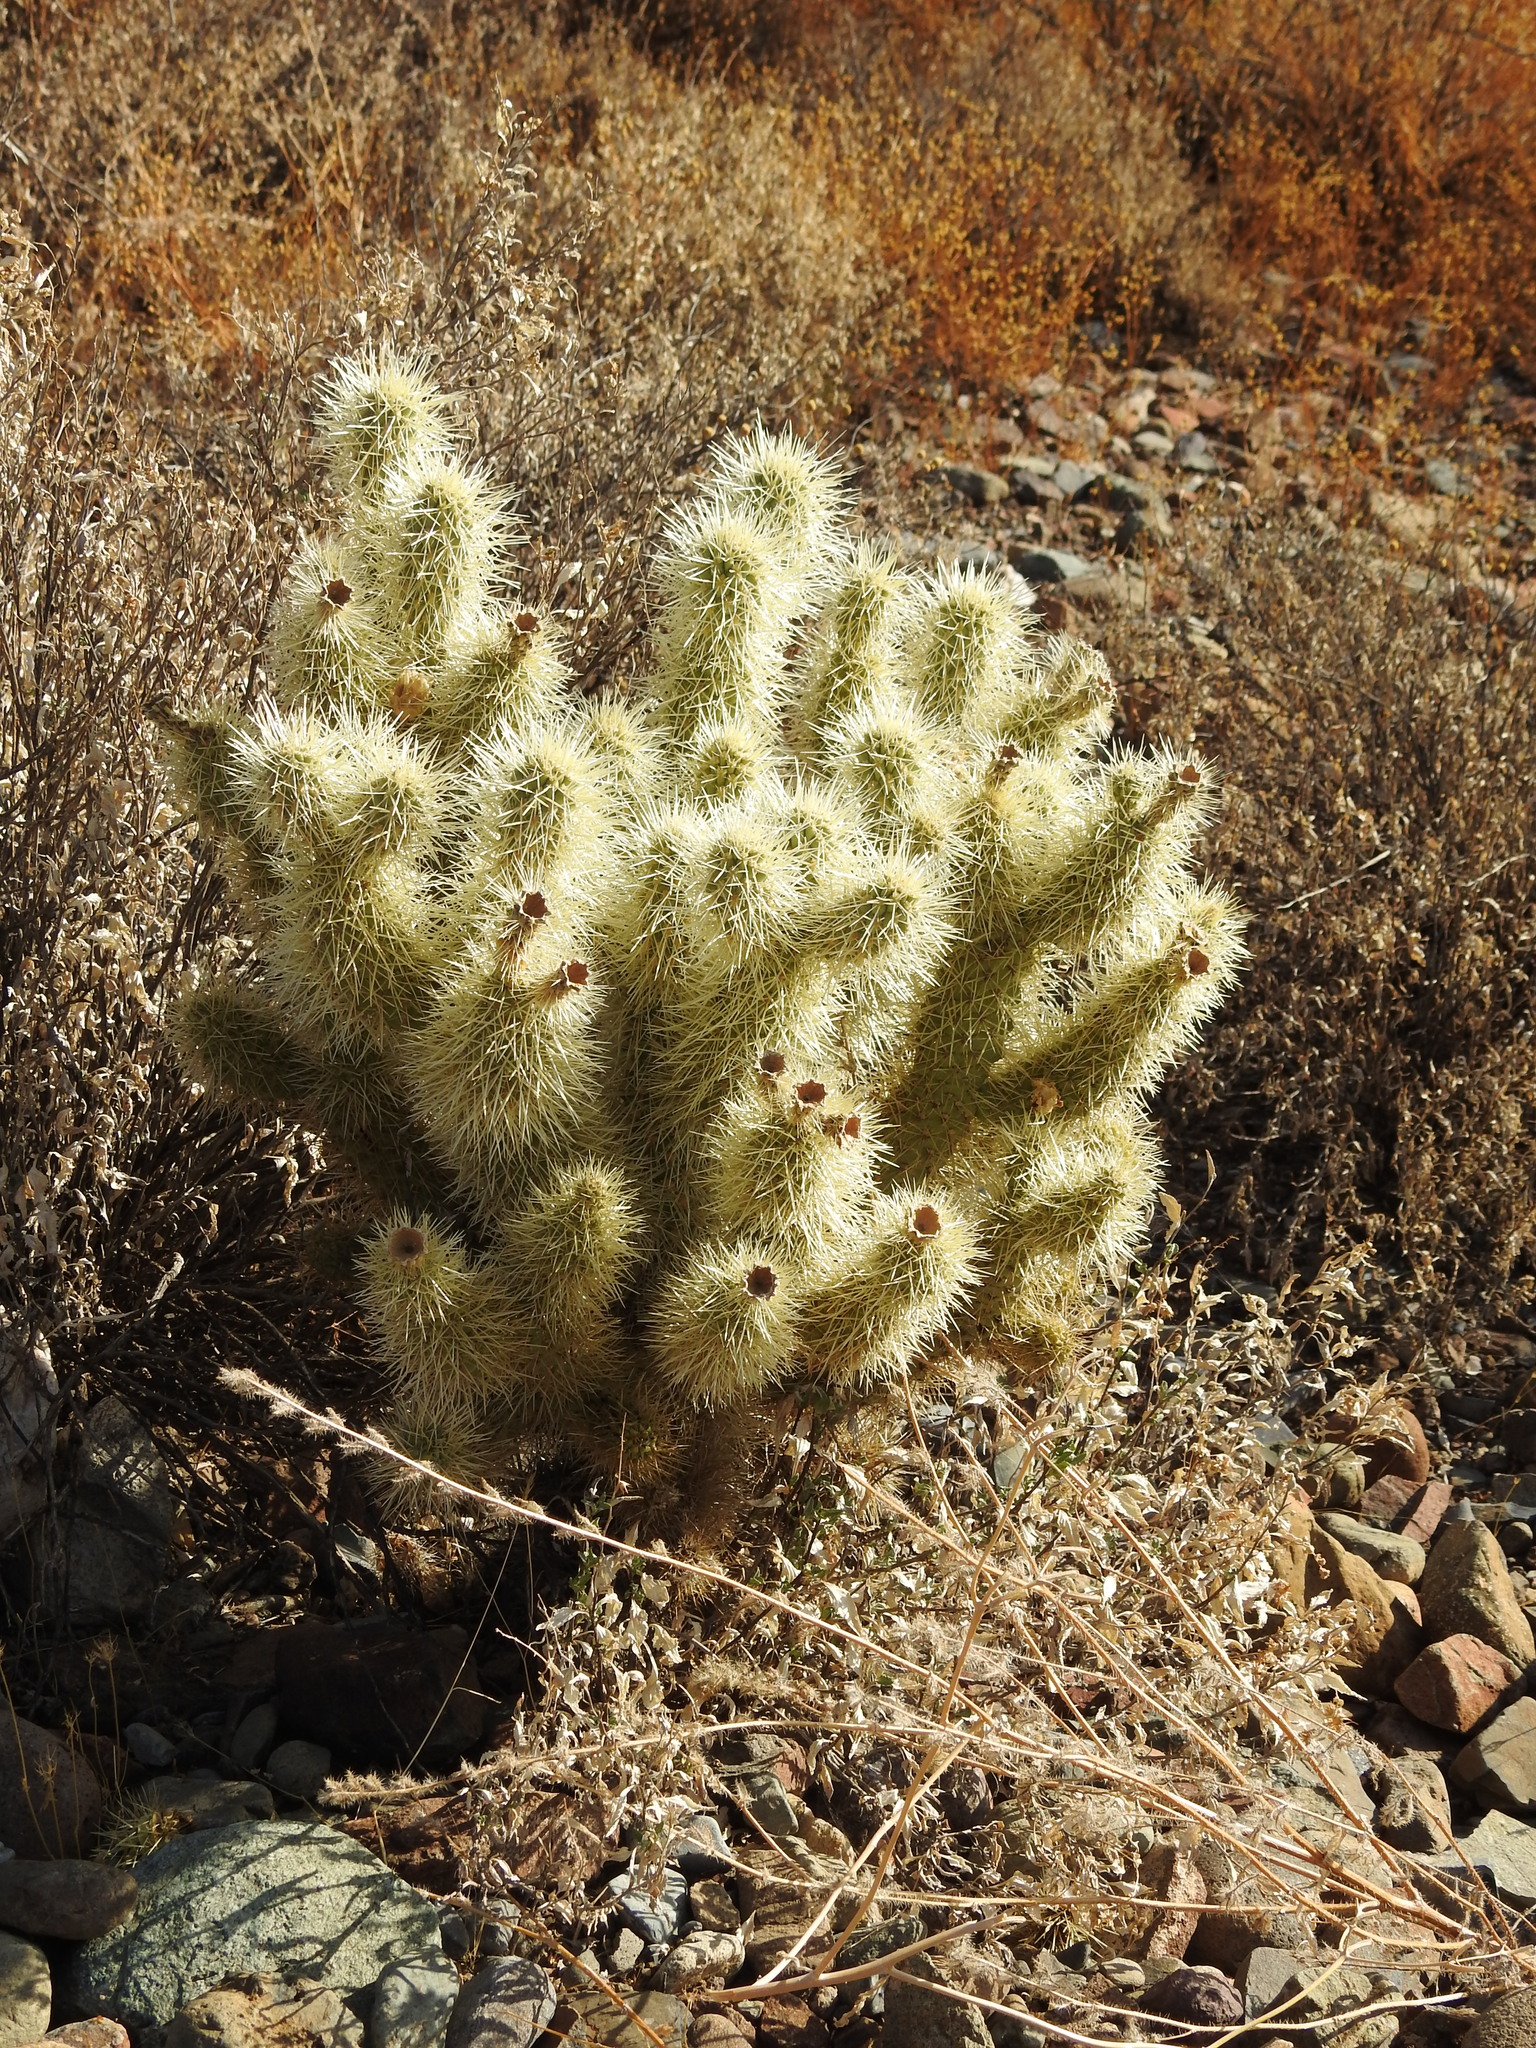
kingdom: Plantae
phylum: Tracheophyta
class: Magnoliopsida
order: Caryophyllales
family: Cactaceae
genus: Cylindropuntia
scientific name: Cylindropuntia fosbergii
